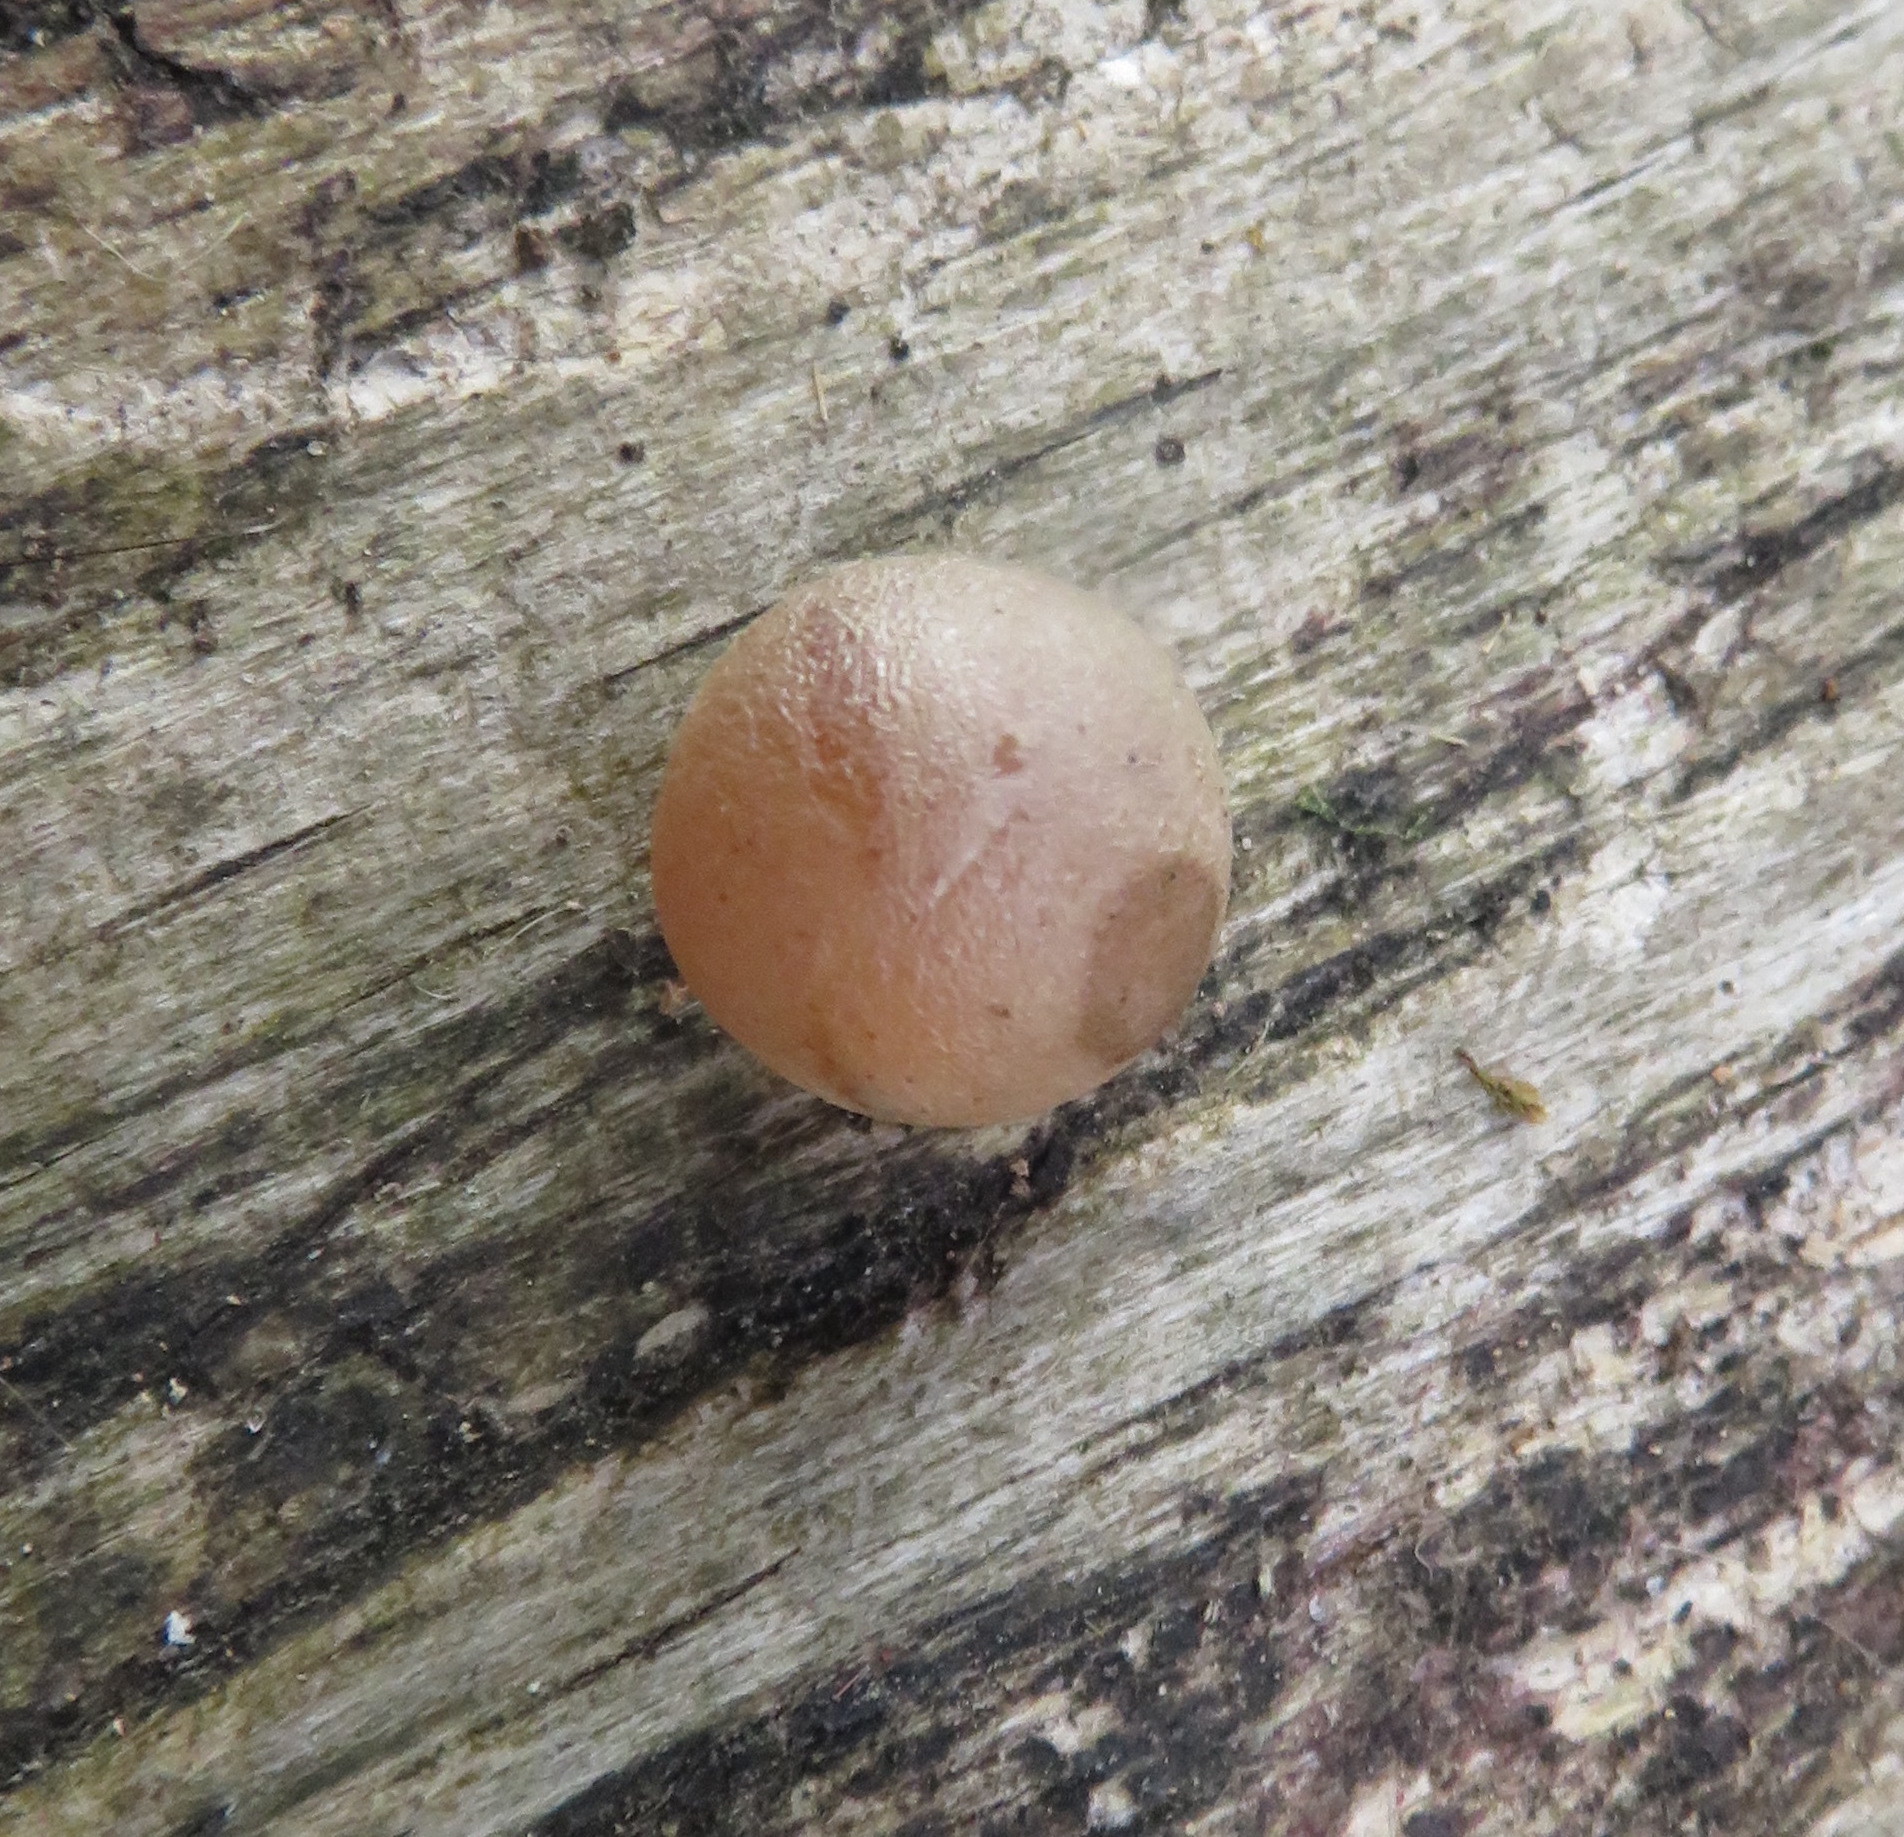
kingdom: Plantae
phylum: Tracheophyta
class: Liliopsida
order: Asparagales
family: Asparagaceae
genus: Dracaena
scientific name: Dracaena draco
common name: Canary island dragon tree
